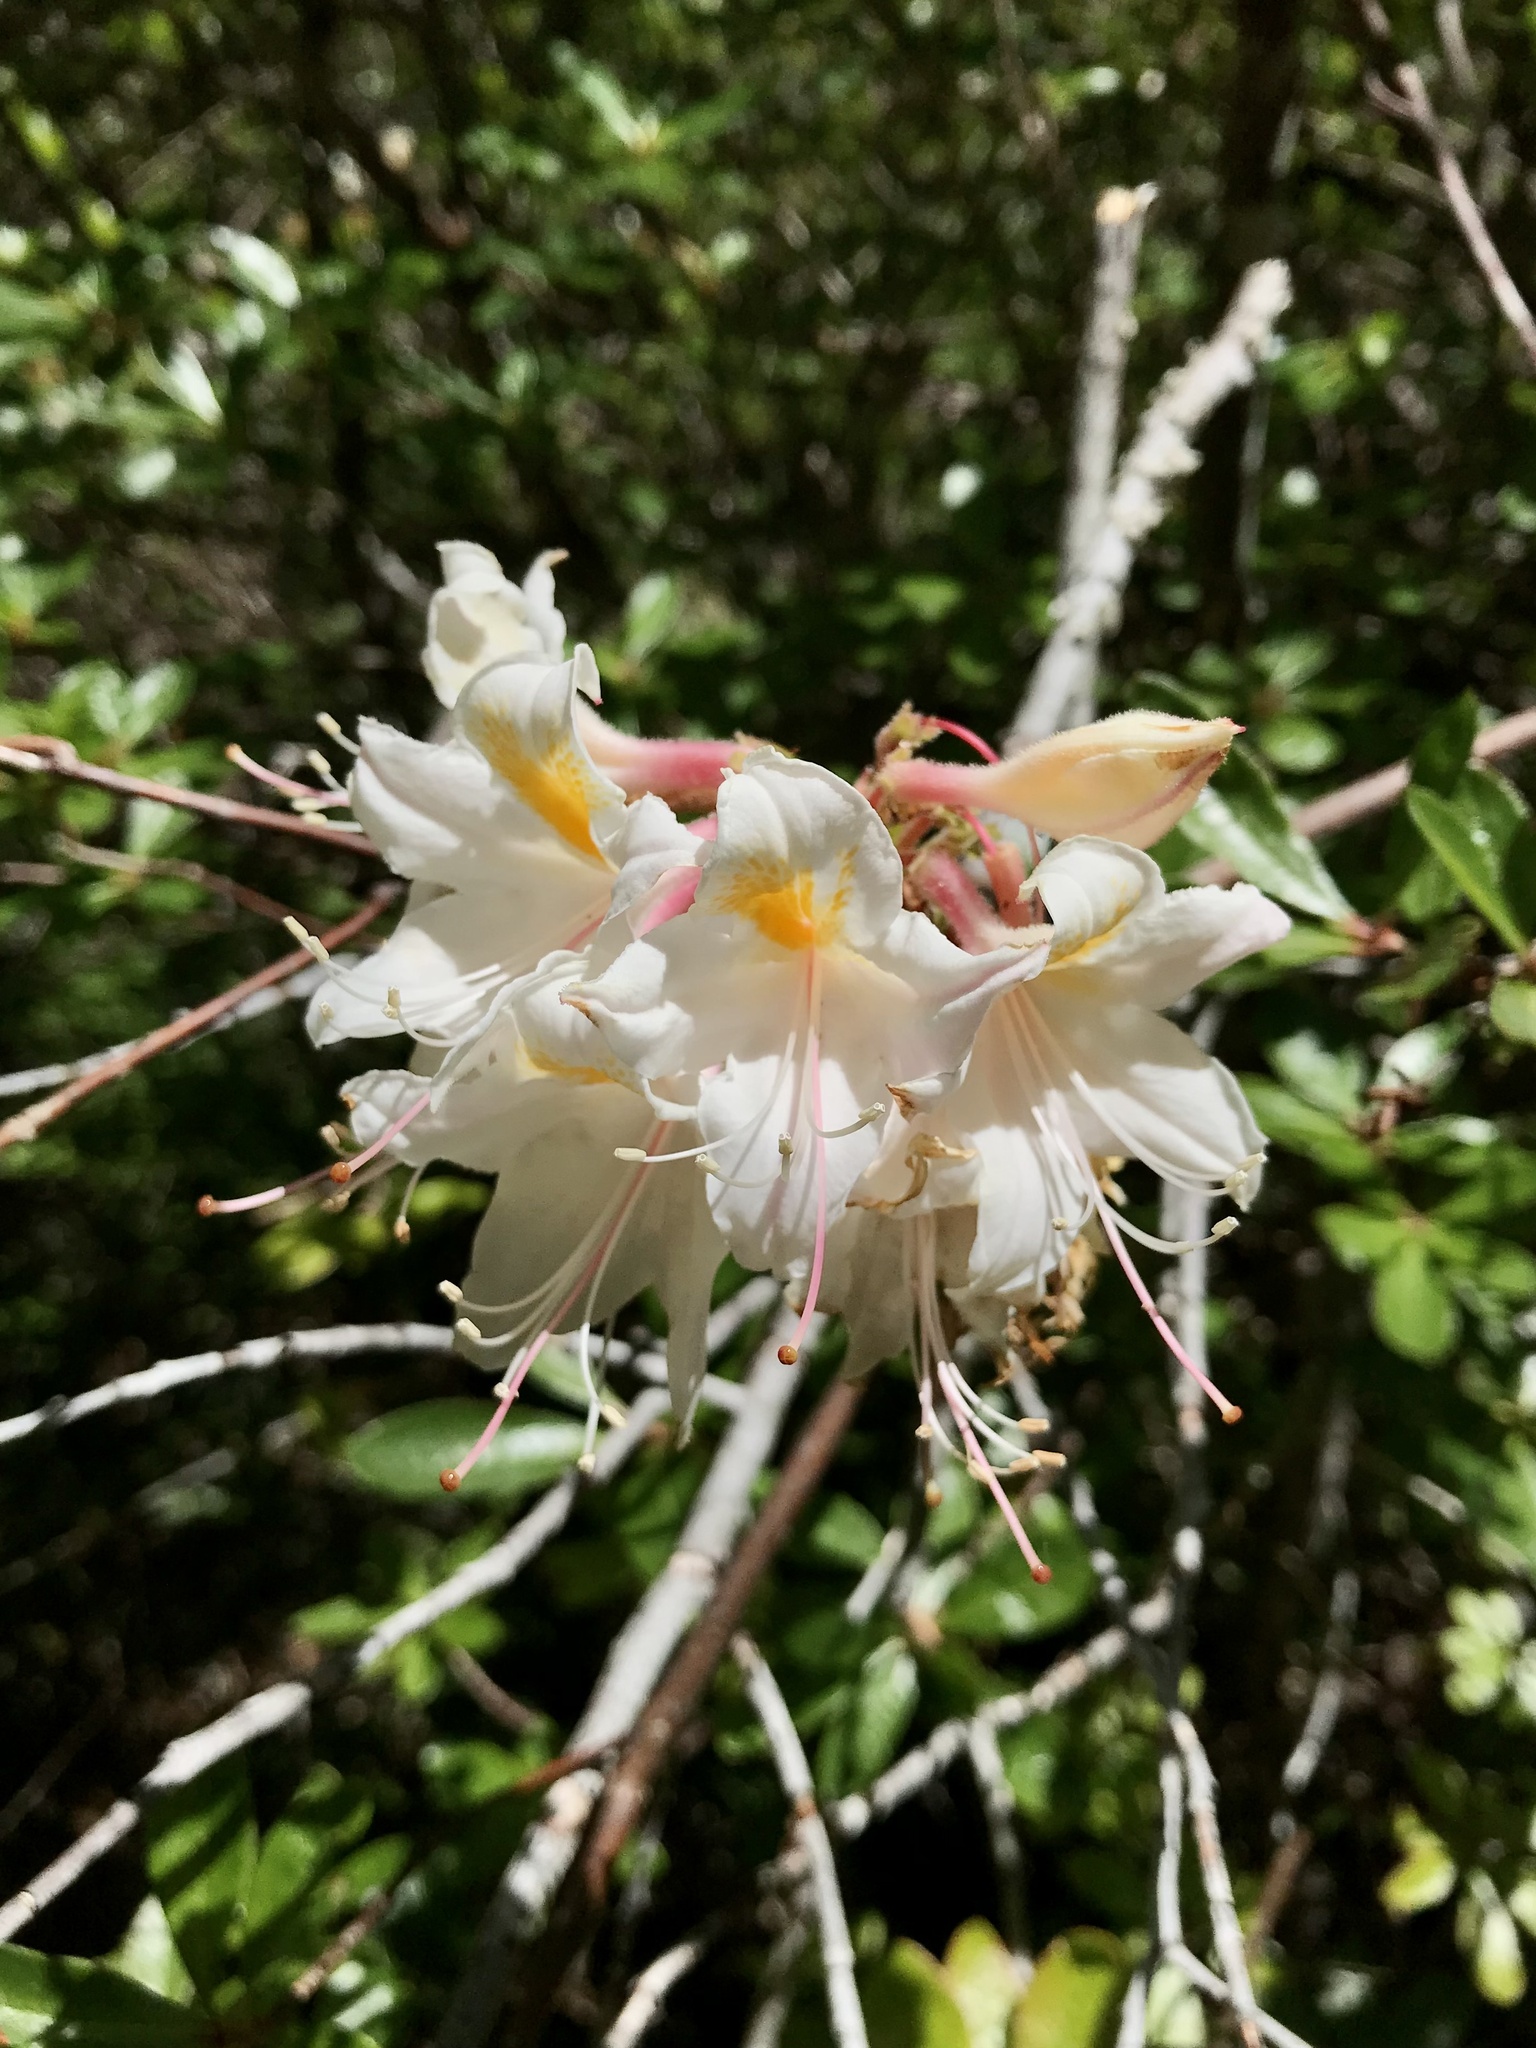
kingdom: Plantae
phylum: Tracheophyta
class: Magnoliopsida
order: Ericales
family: Ericaceae
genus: Rhododendron
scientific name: Rhododendron occidentale
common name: Western azalea
